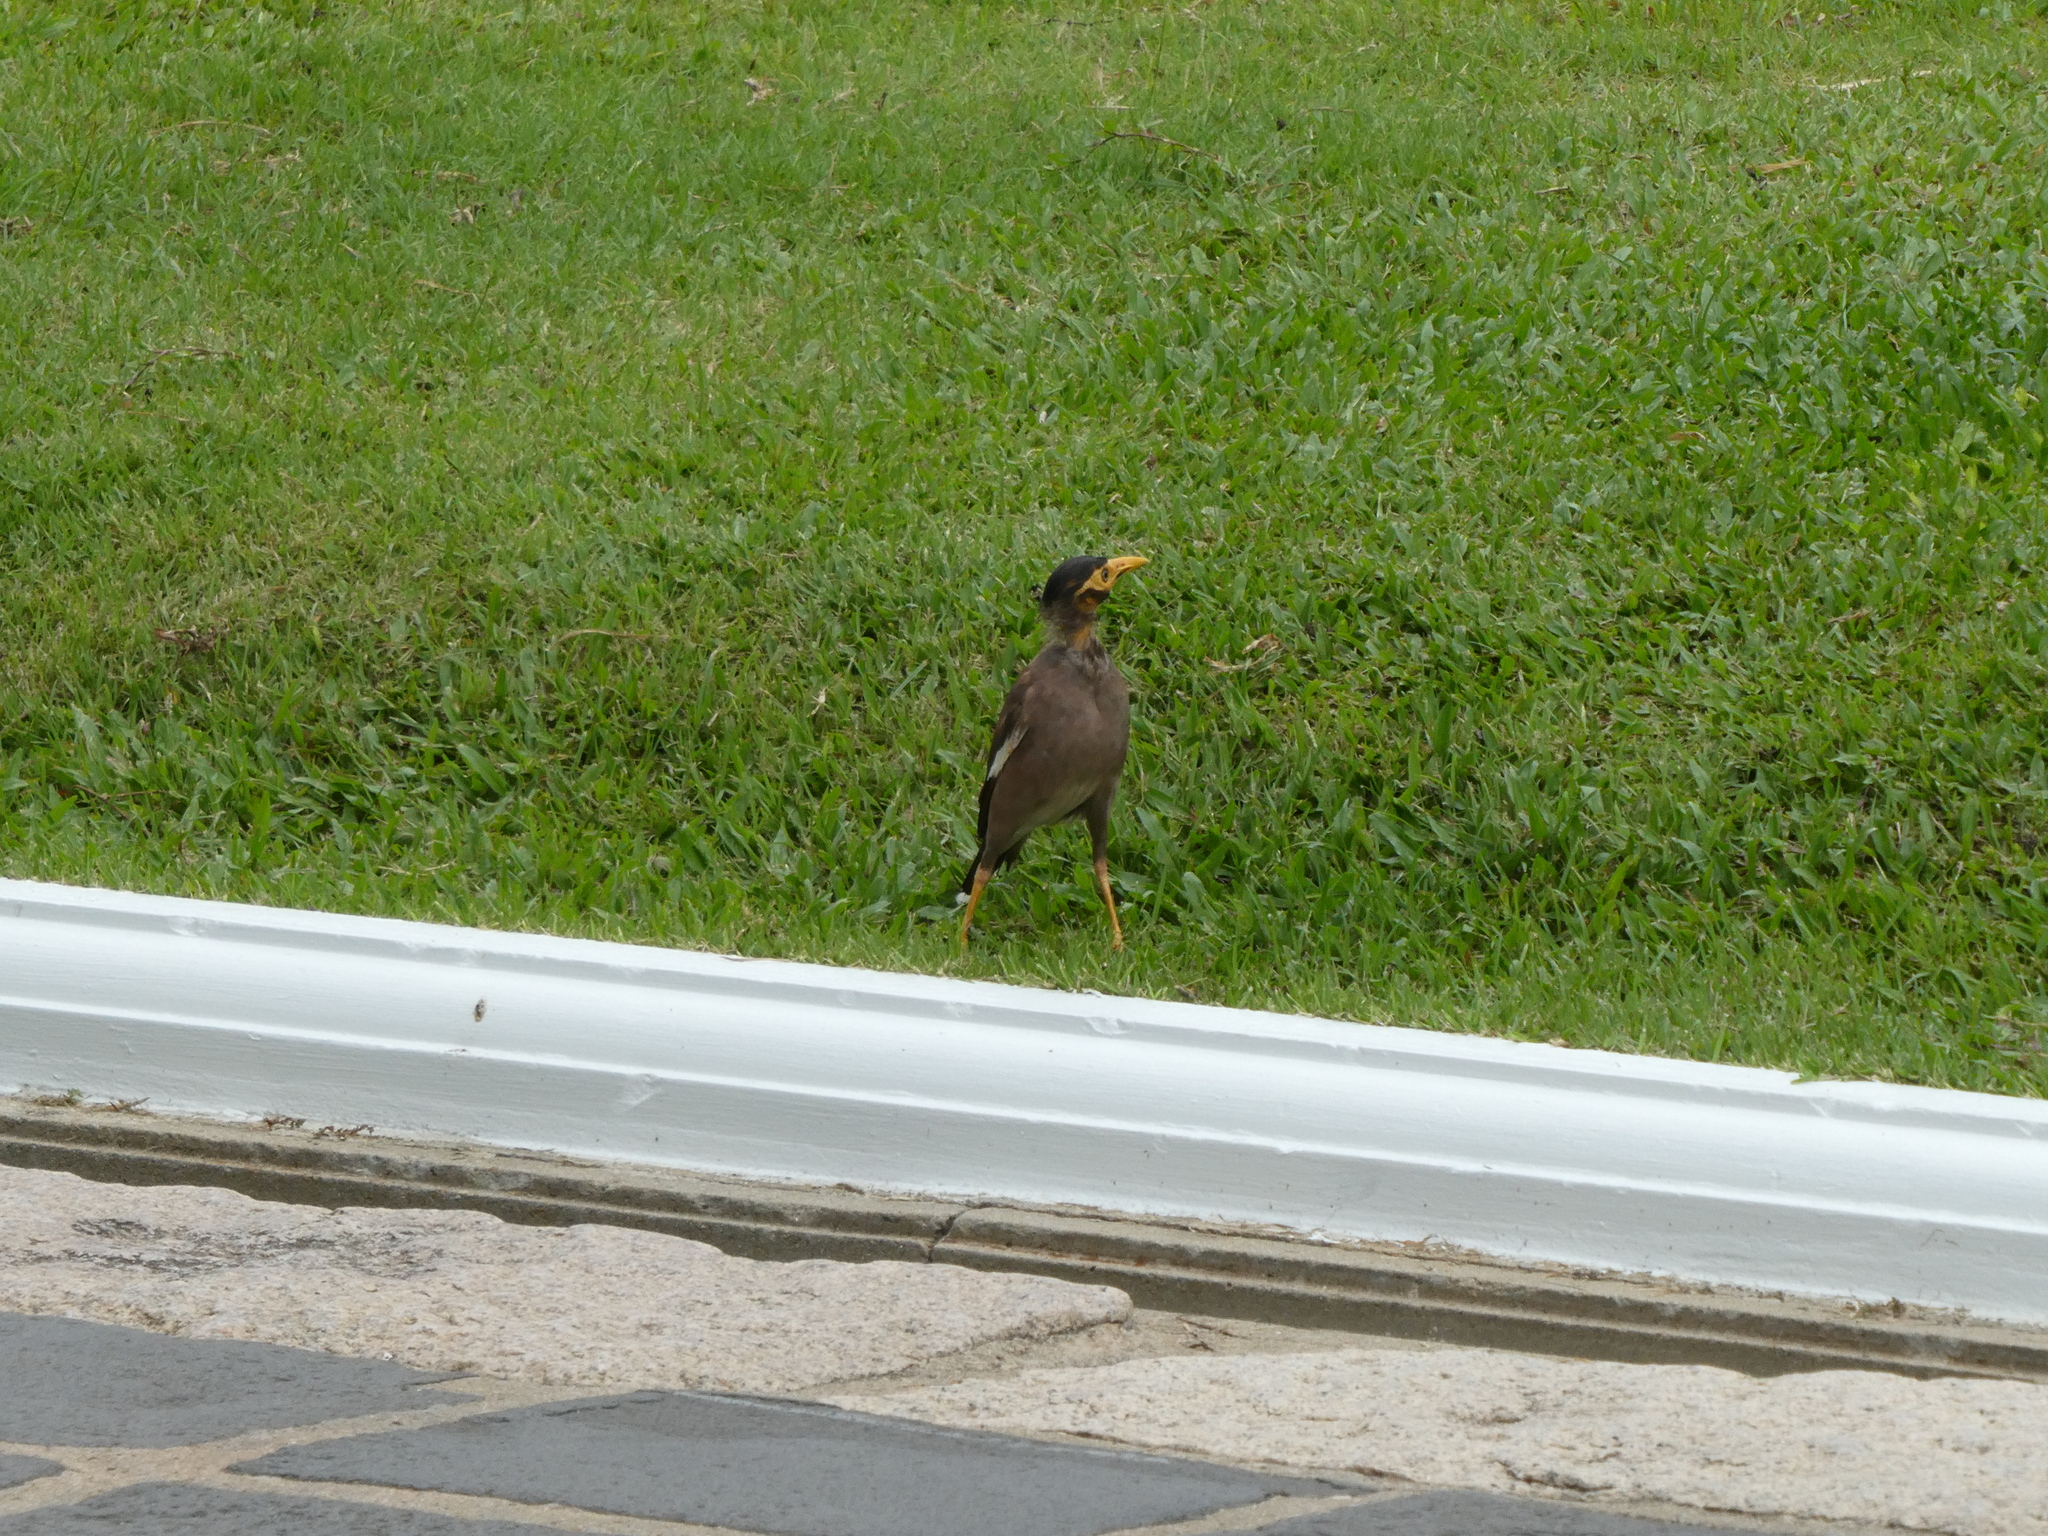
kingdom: Animalia
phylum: Chordata
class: Aves
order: Passeriformes
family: Sturnidae
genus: Acridotheres
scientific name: Acridotheres tristis
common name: Common myna
